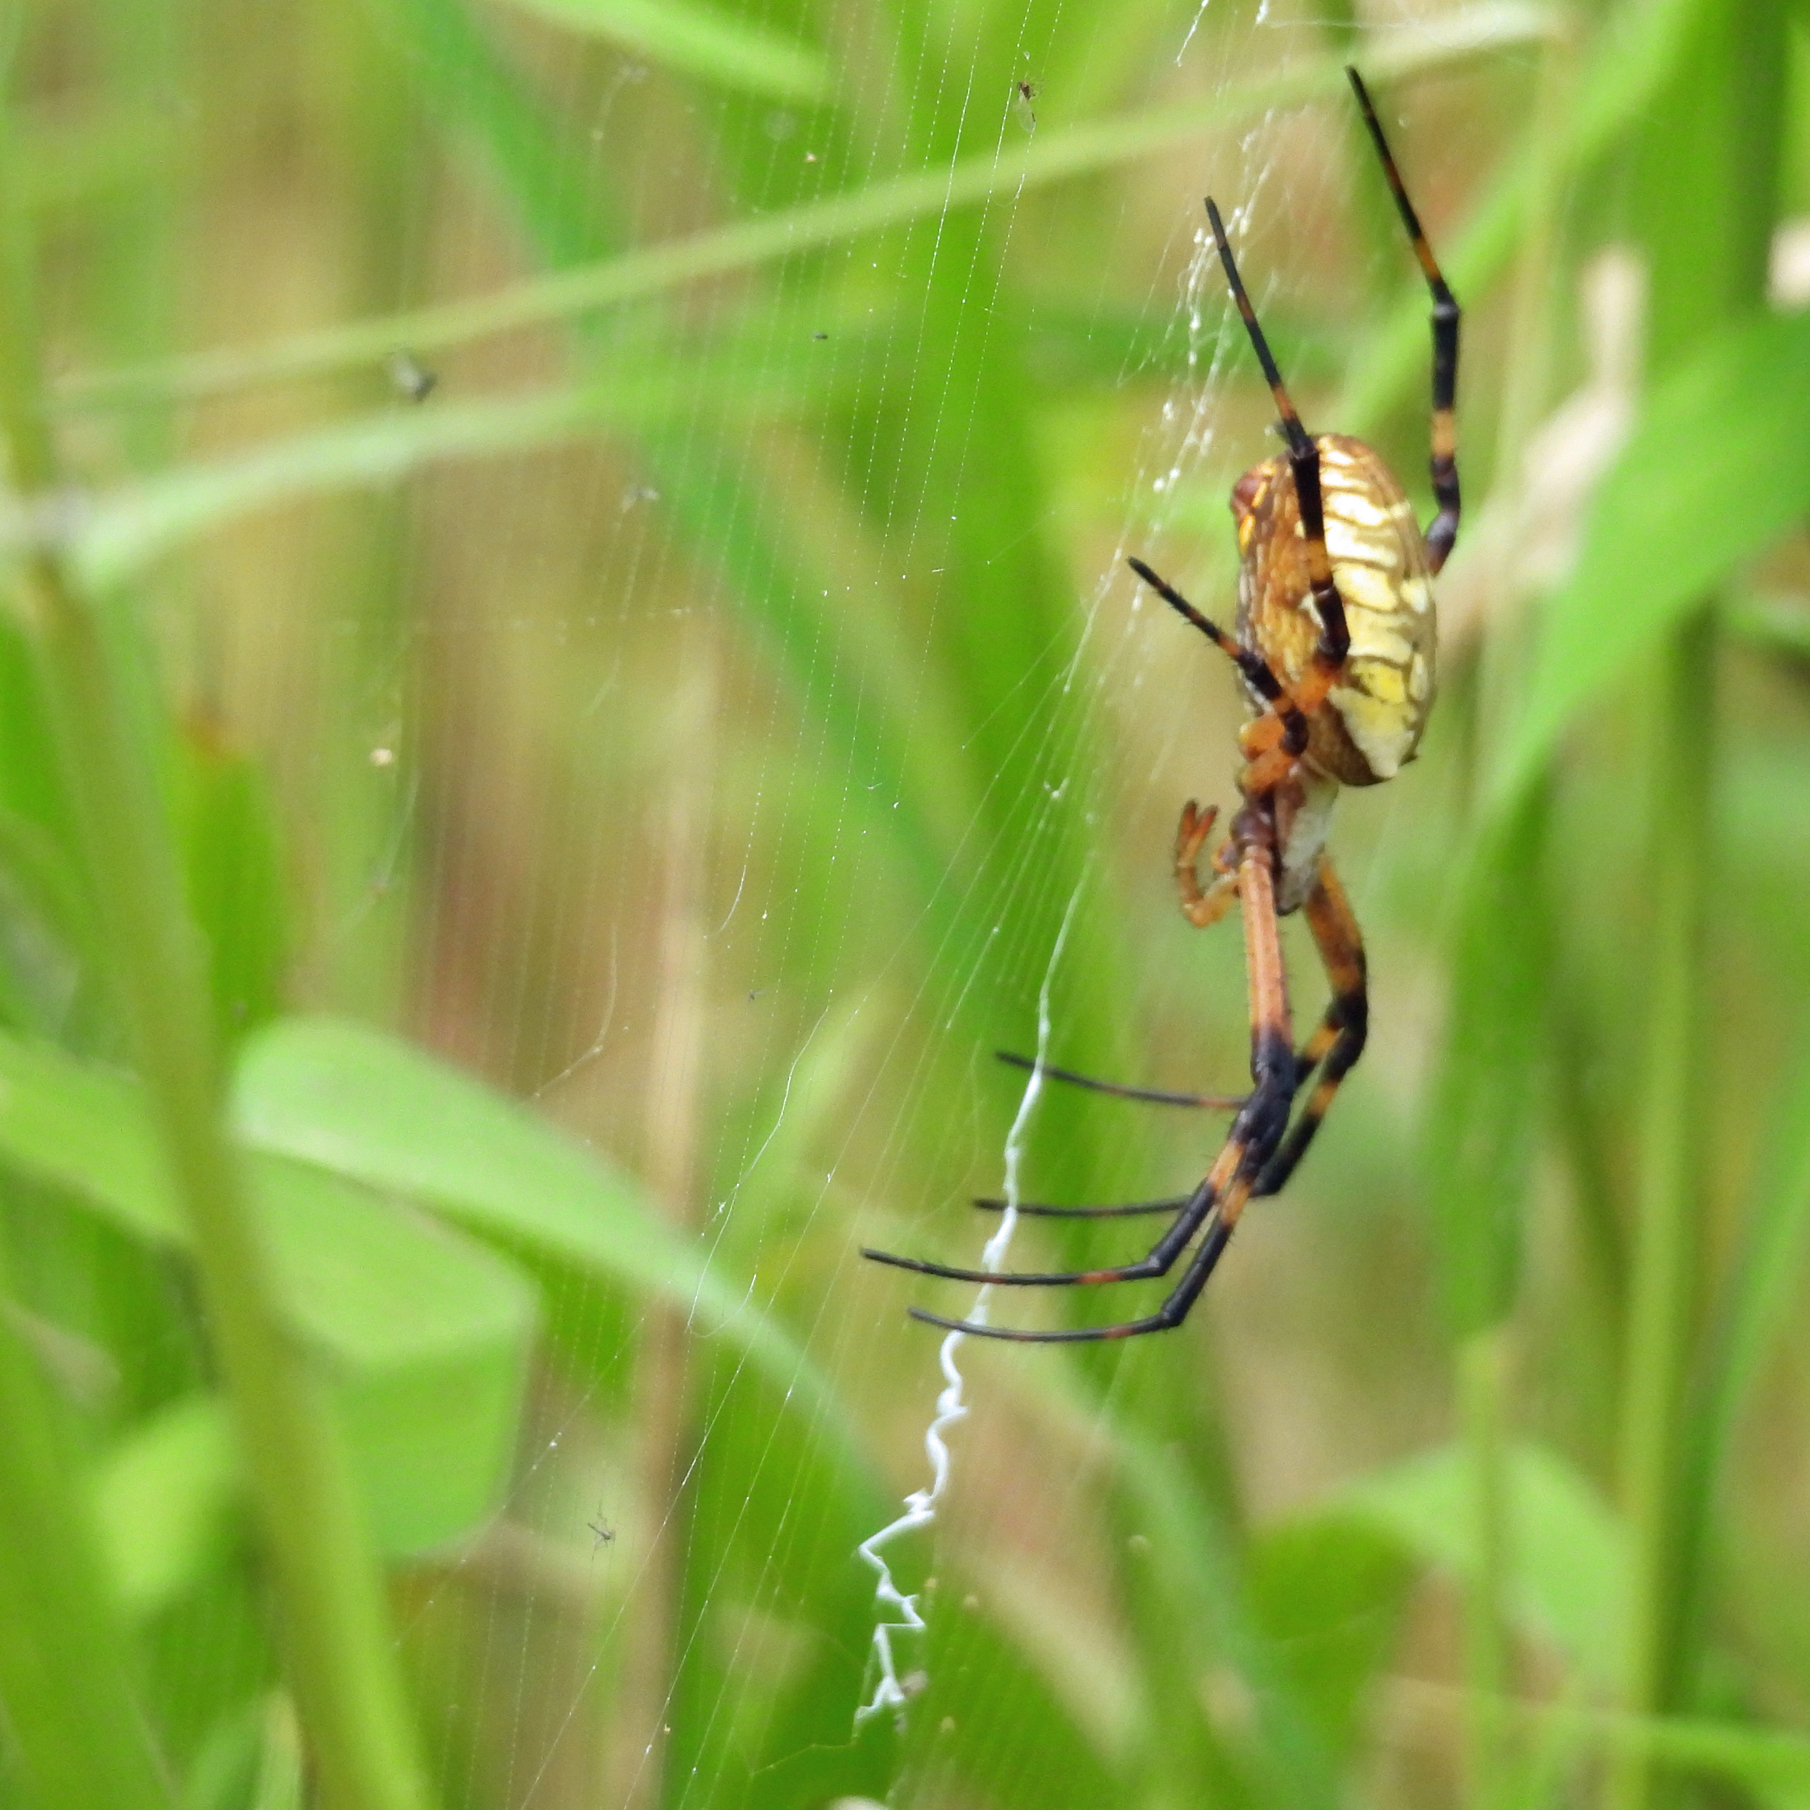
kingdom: Animalia
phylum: Arthropoda
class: Arachnida
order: Araneae
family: Araneidae
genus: Argiope
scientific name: Argiope aurantia
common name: Orb weavers
